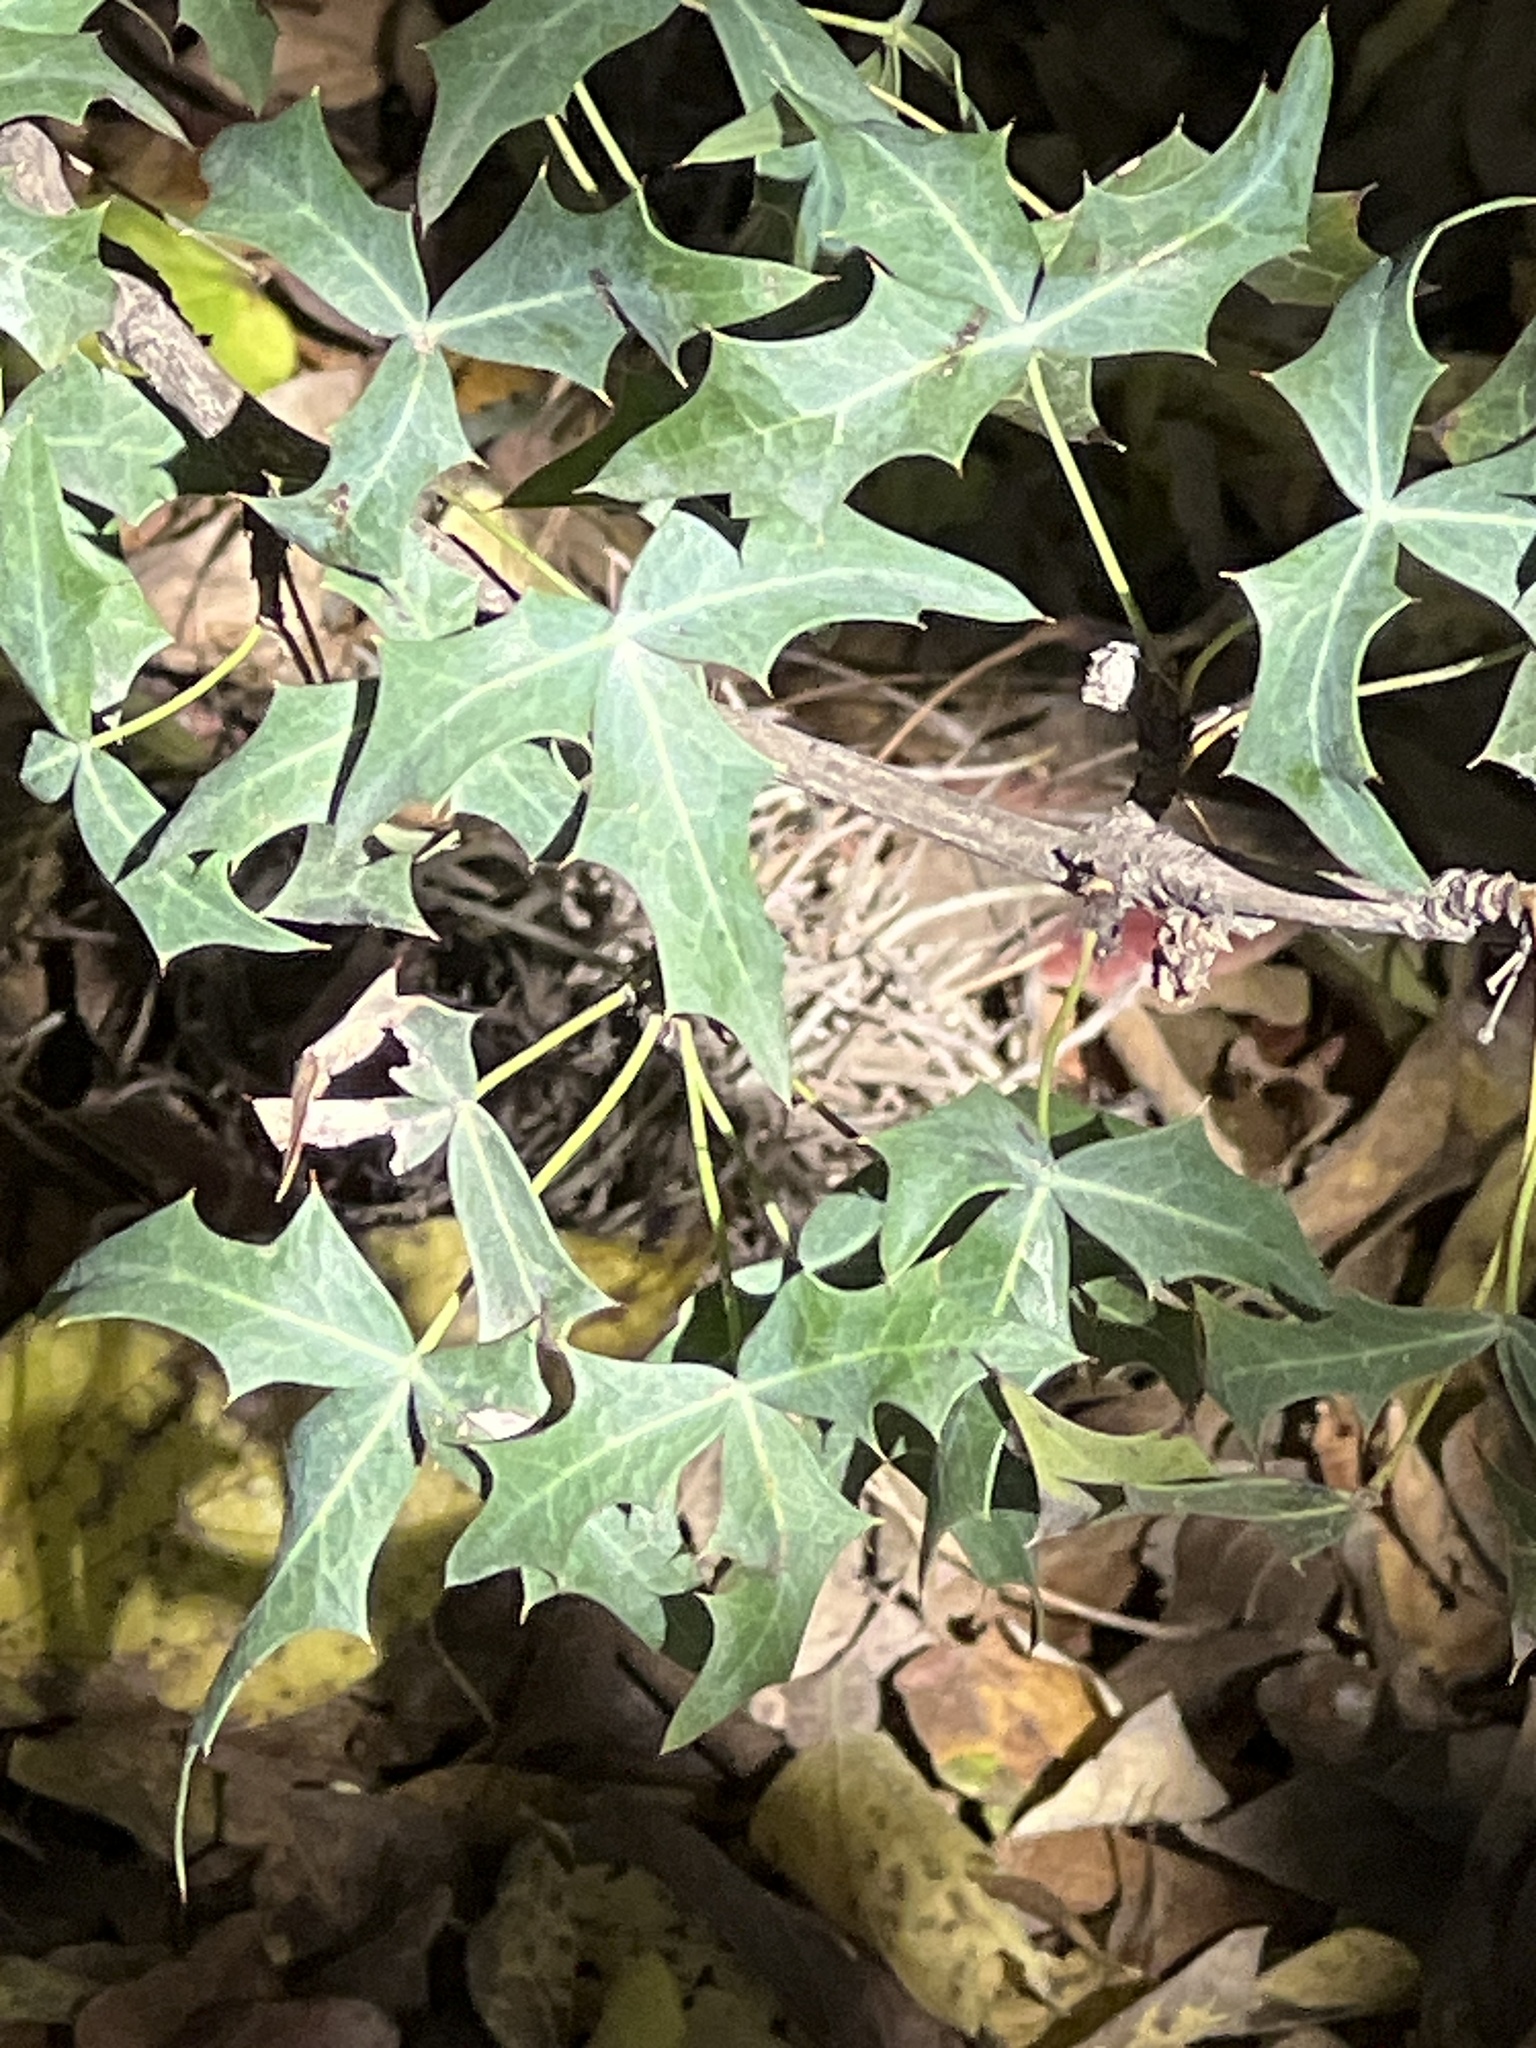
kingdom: Plantae
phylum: Tracheophyta
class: Magnoliopsida
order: Ranunculales
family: Berberidaceae
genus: Alloberberis
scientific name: Alloberberis trifoliolata
